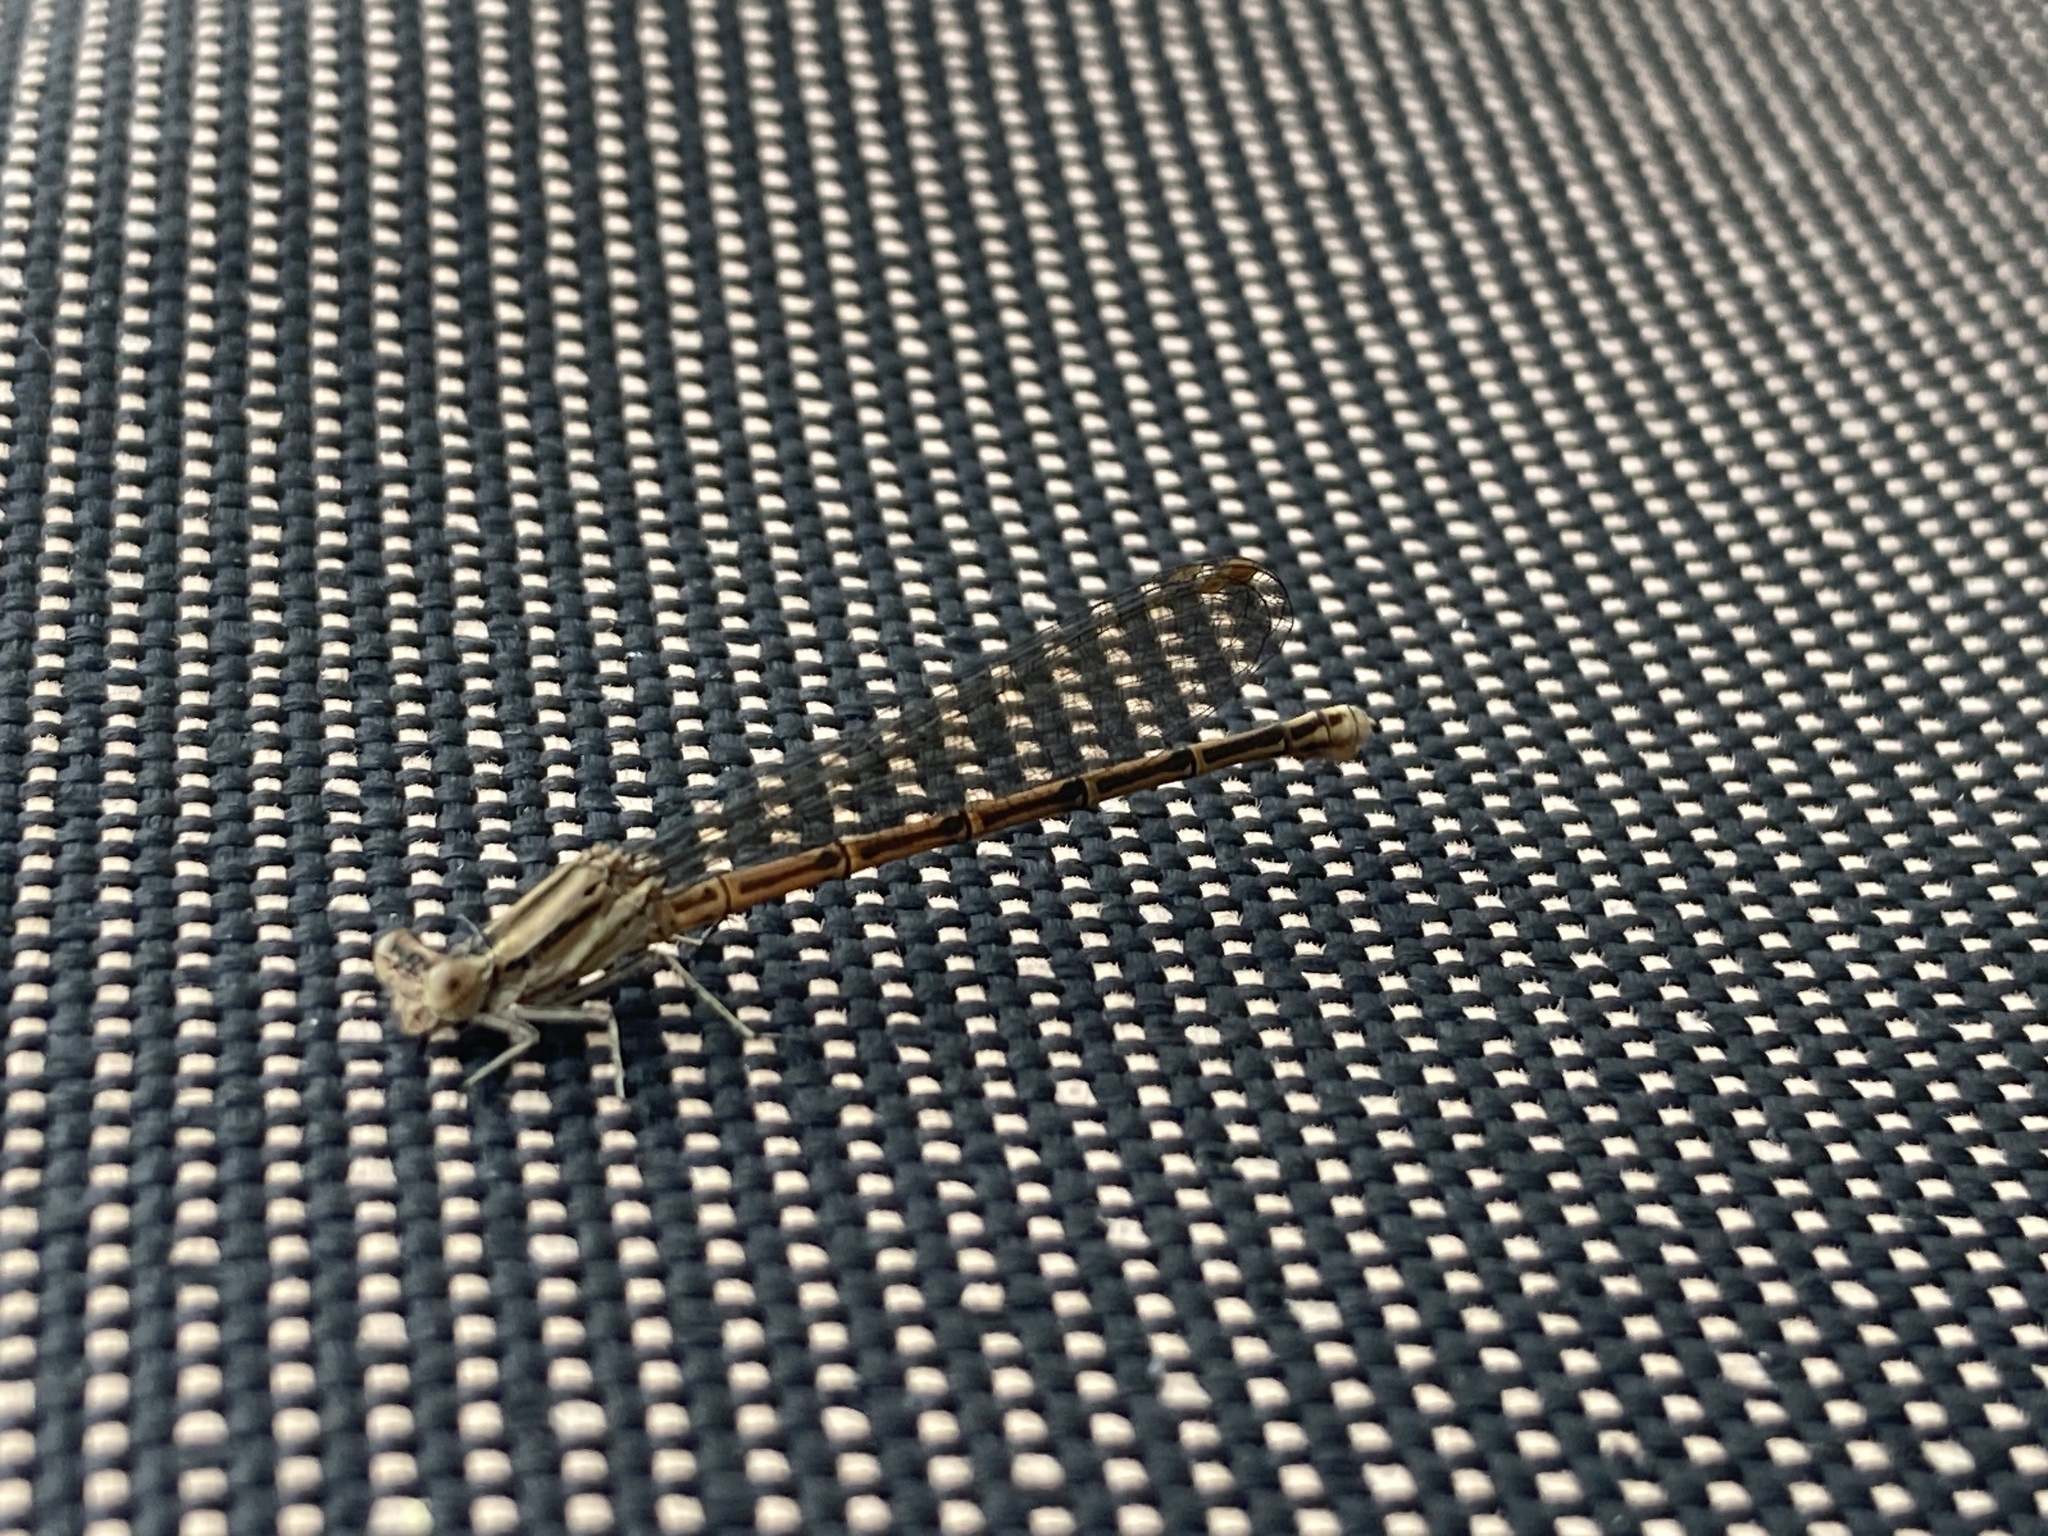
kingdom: Animalia
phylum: Arthropoda
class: Insecta
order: Odonata
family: Coenagrionidae
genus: Argia
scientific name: Argia fumipennis
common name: Variable dancer
